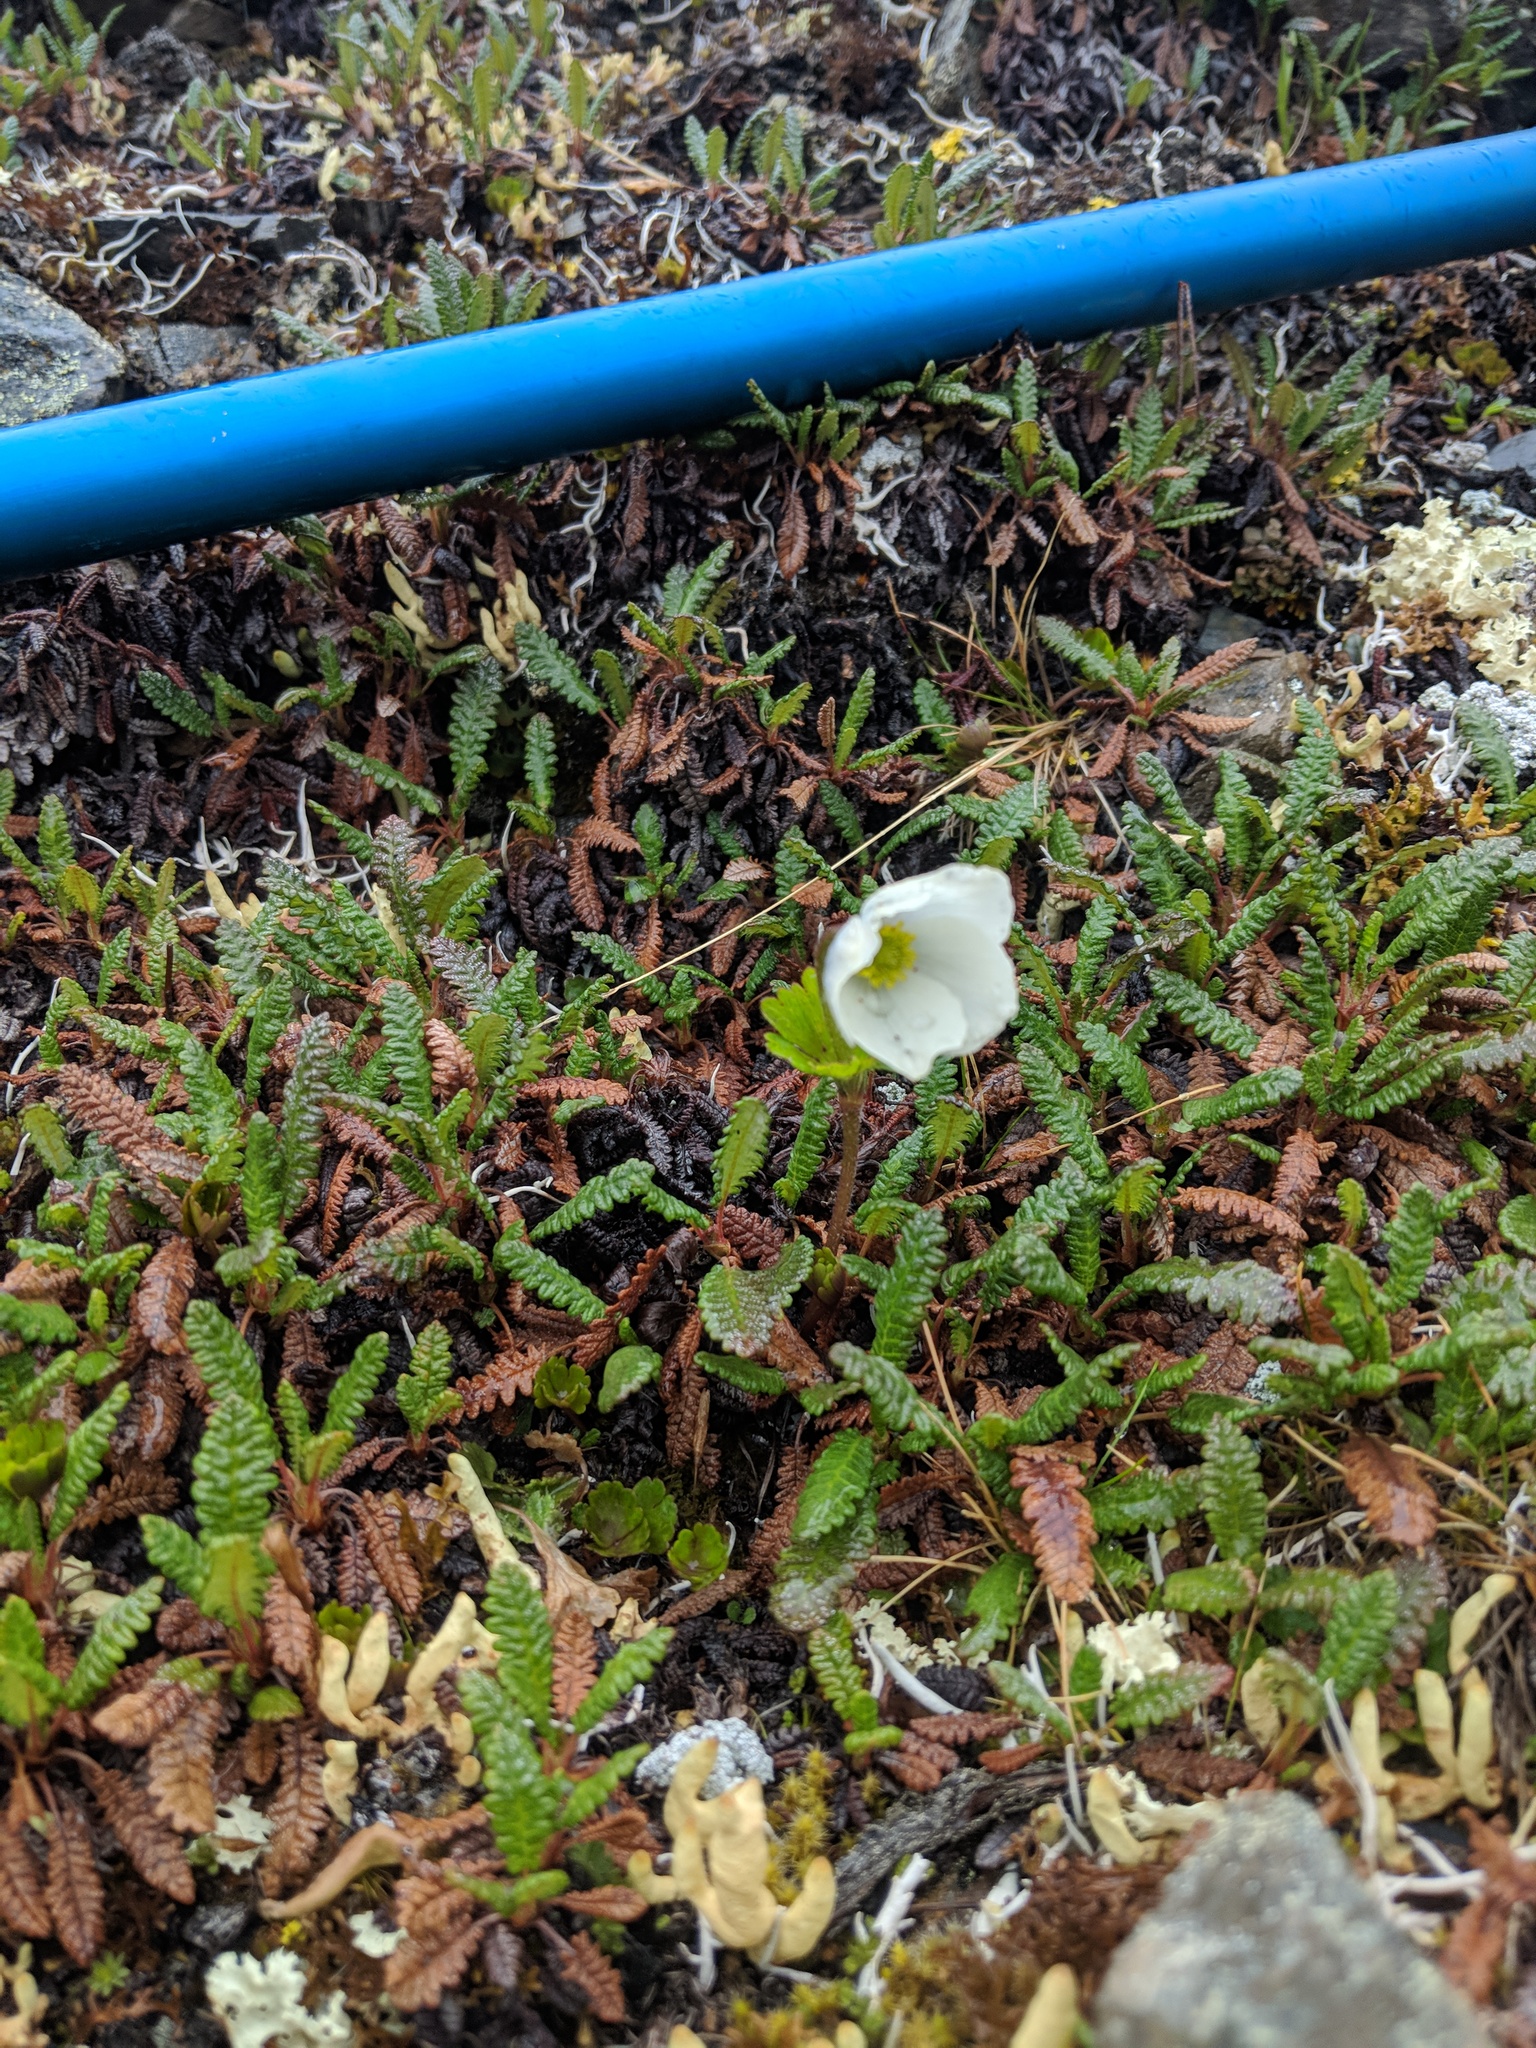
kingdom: Plantae
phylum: Tracheophyta
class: Magnoliopsida
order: Ranunculales
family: Ranunculaceae
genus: Anemone
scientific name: Anemone parviflora
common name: Northern anemone
